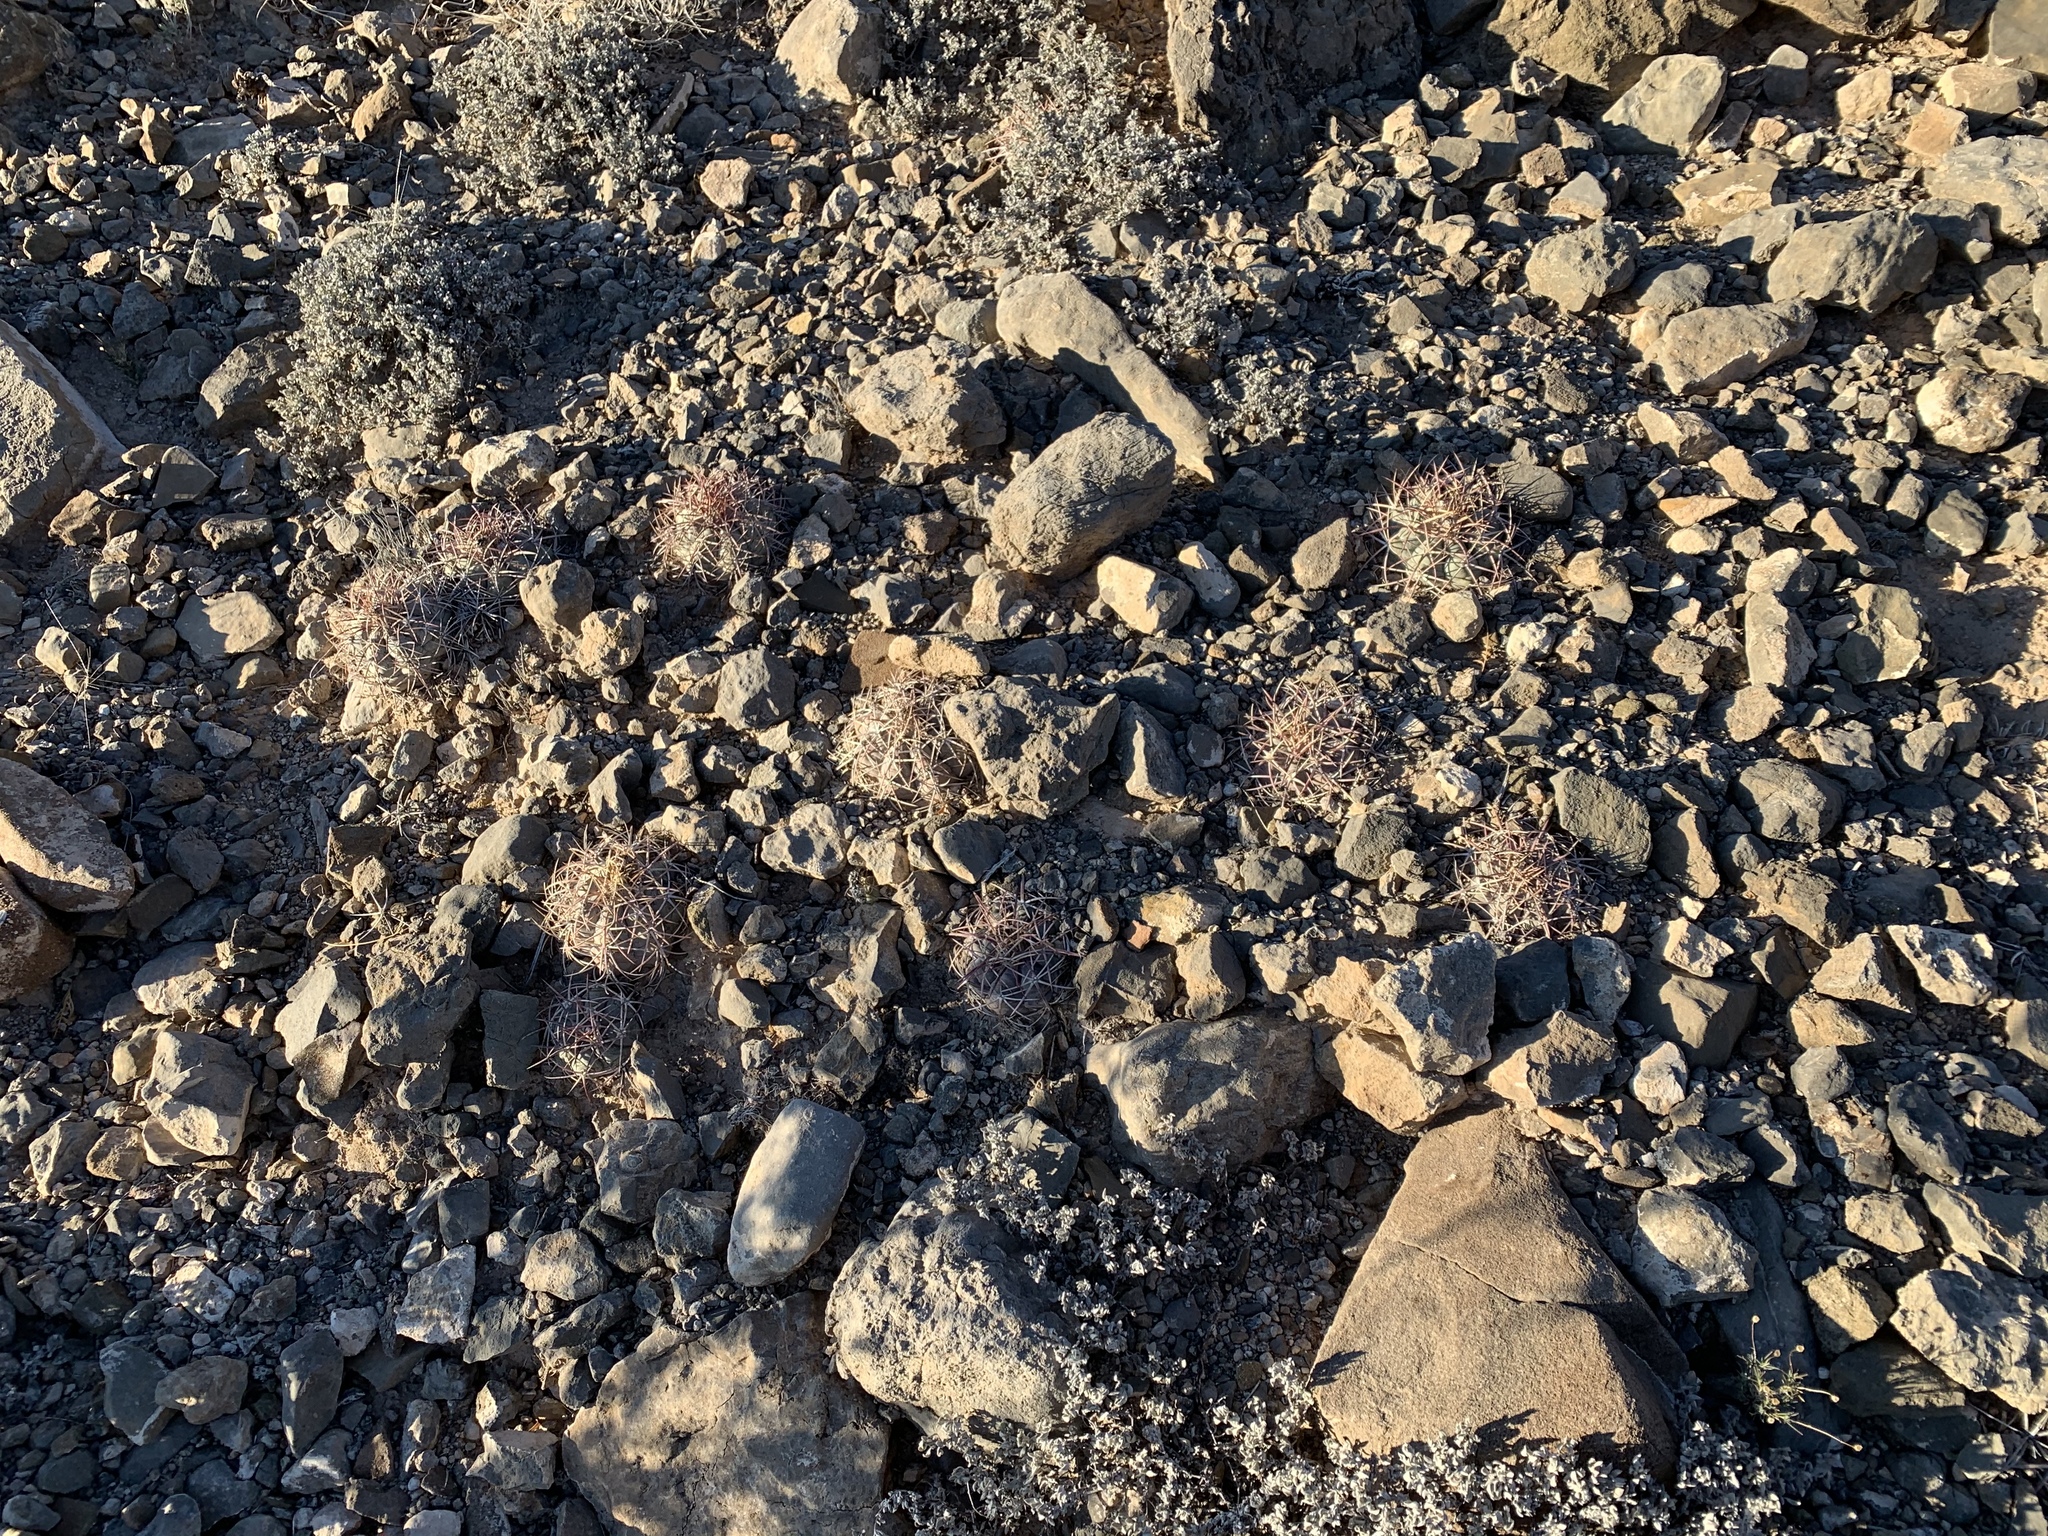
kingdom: Plantae
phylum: Tracheophyta
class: Magnoliopsida
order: Caryophyllales
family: Cactaceae
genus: Echinocactus
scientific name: Echinocactus horizonthalonius
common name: Devilshead
